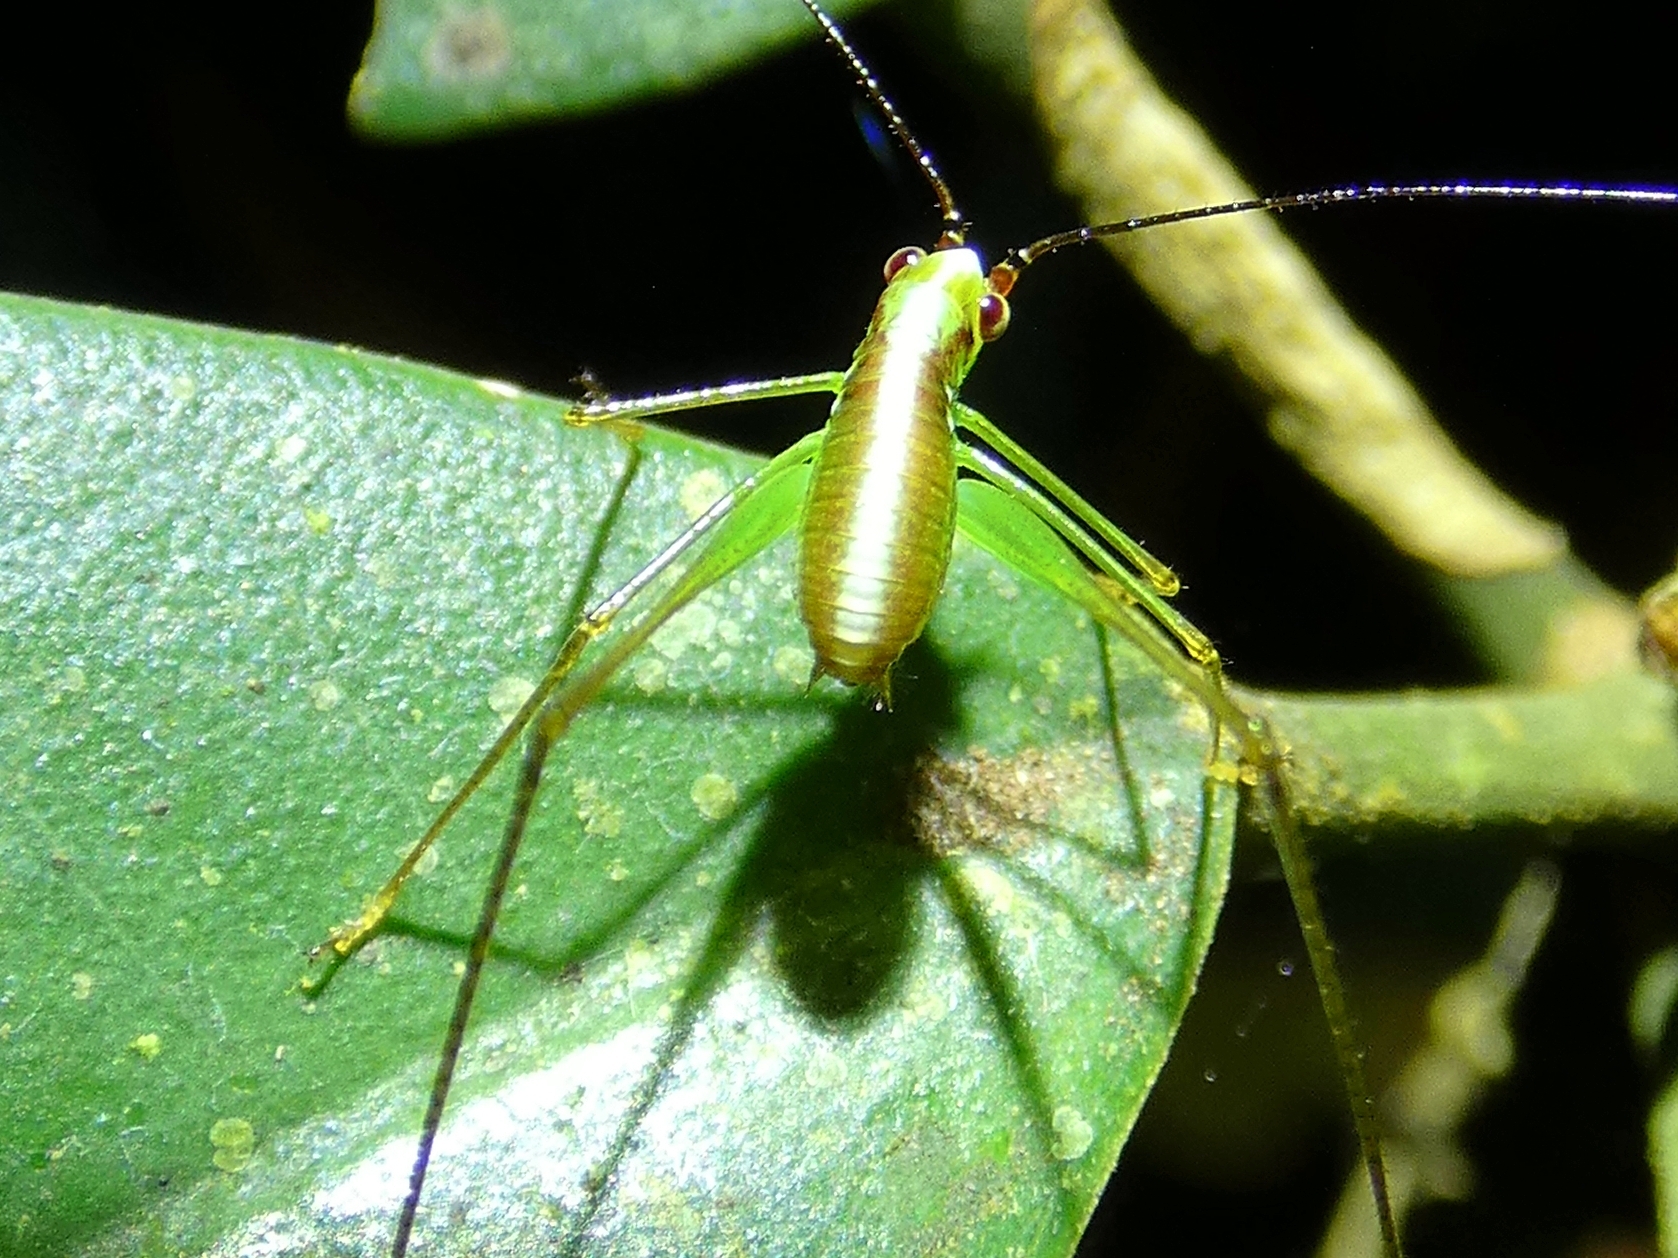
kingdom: Animalia
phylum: Arthropoda
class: Insecta
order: Orthoptera
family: Tettigoniidae
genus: Leucopodoptera
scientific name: Leucopodoptera eumundii
